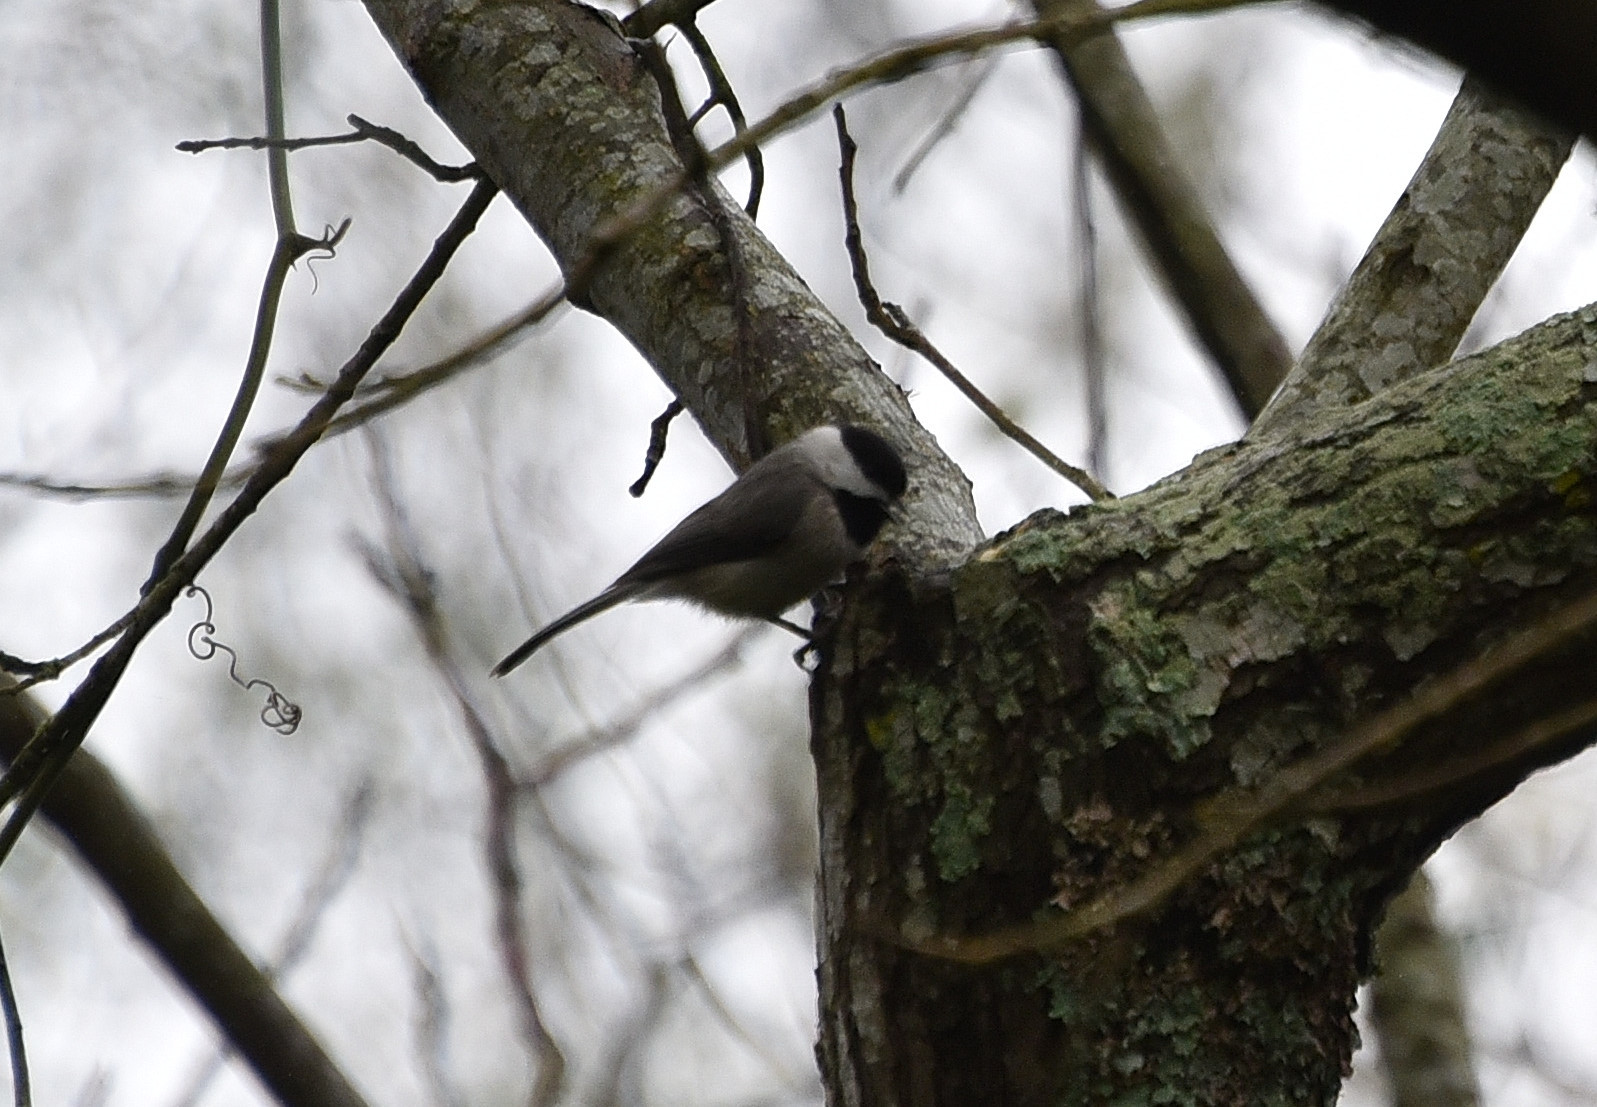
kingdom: Animalia
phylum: Chordata
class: Aves
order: Passeriformes
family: Paridae
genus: Poecile
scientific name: Poecile carolinensis
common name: Carolina chickadee
